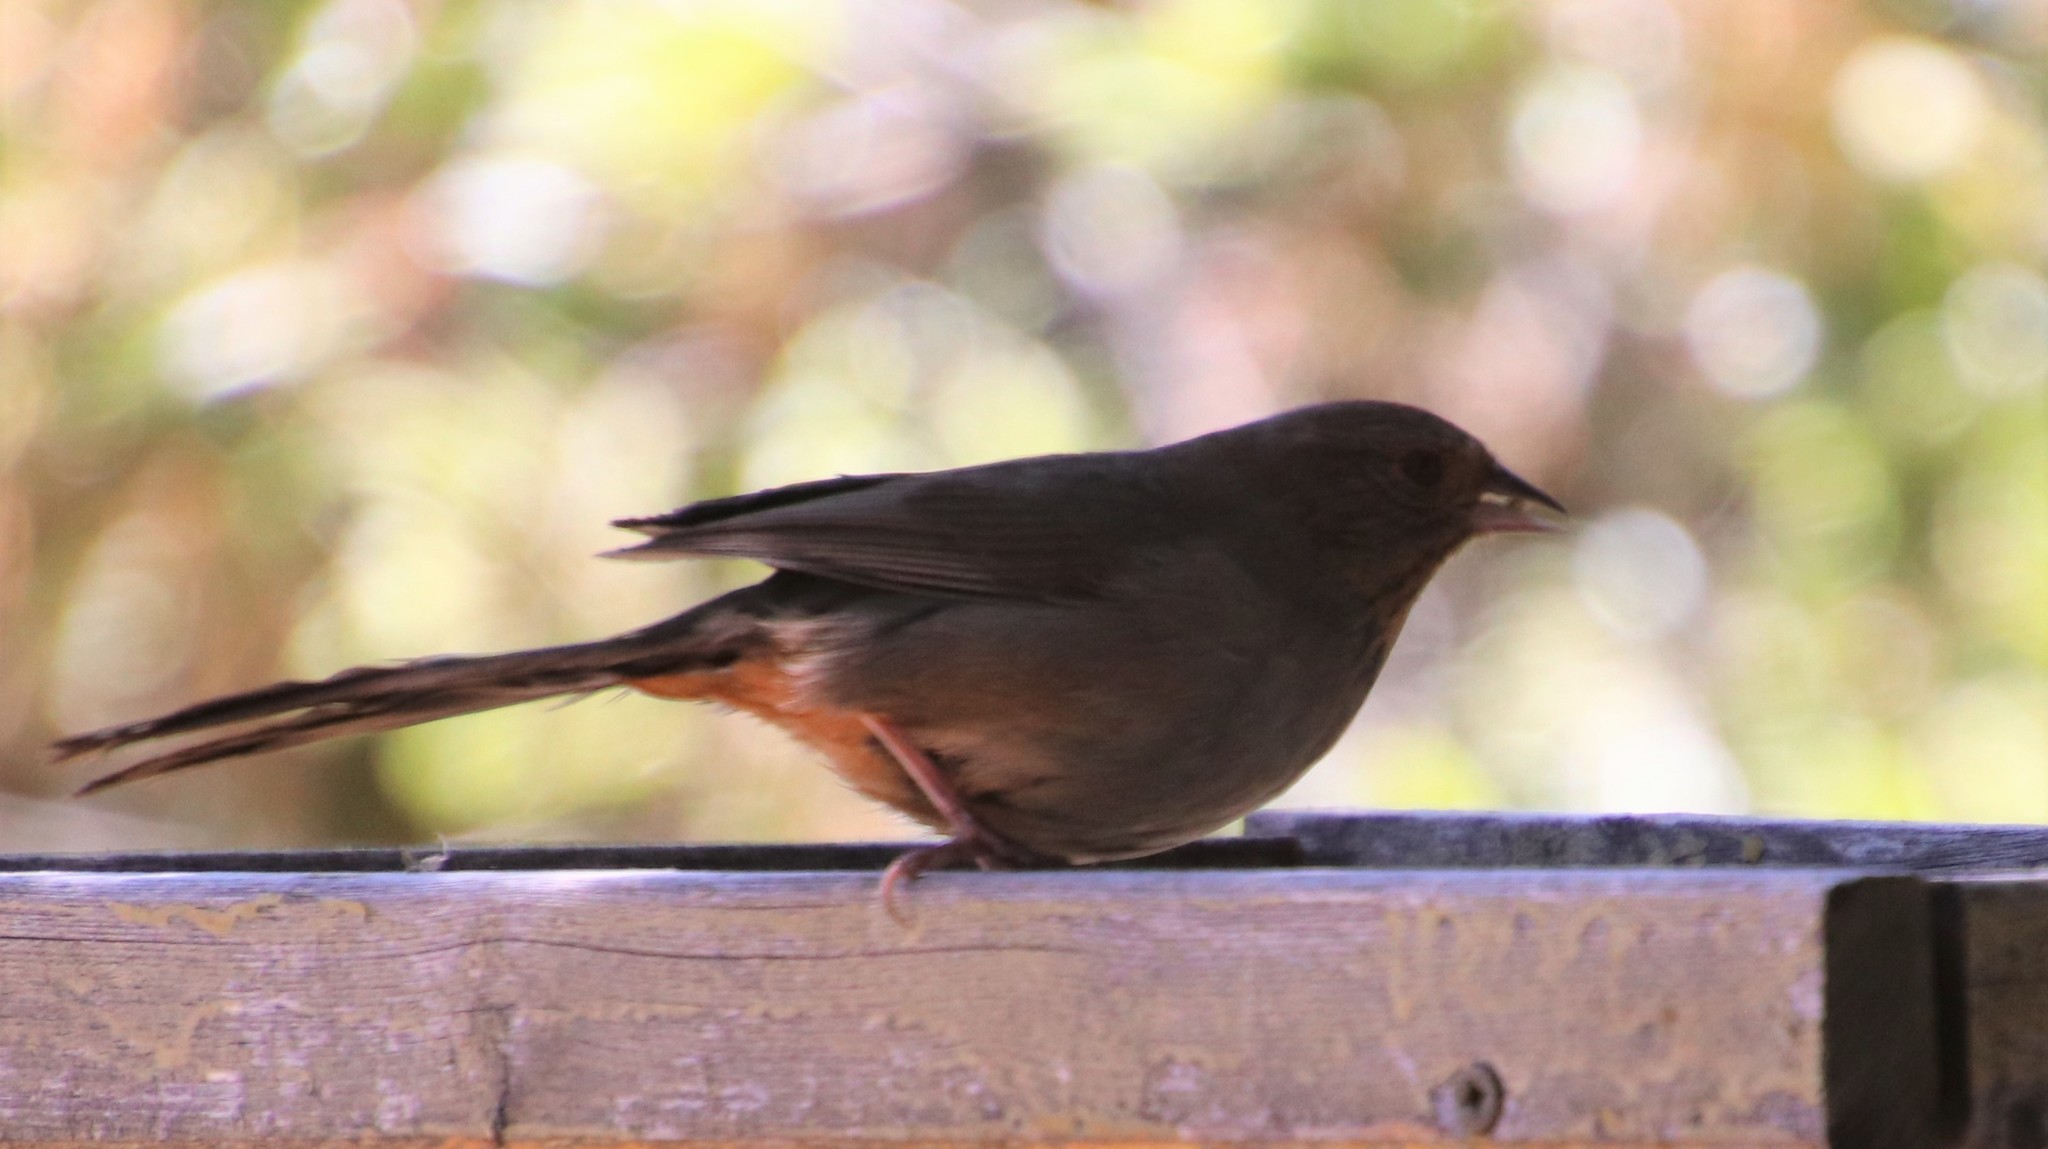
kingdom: Animalia
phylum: Chordata
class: Aves
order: Passeriformes
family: Passerellidae
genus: Melozone
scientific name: Melozone crissalis
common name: California towhee
